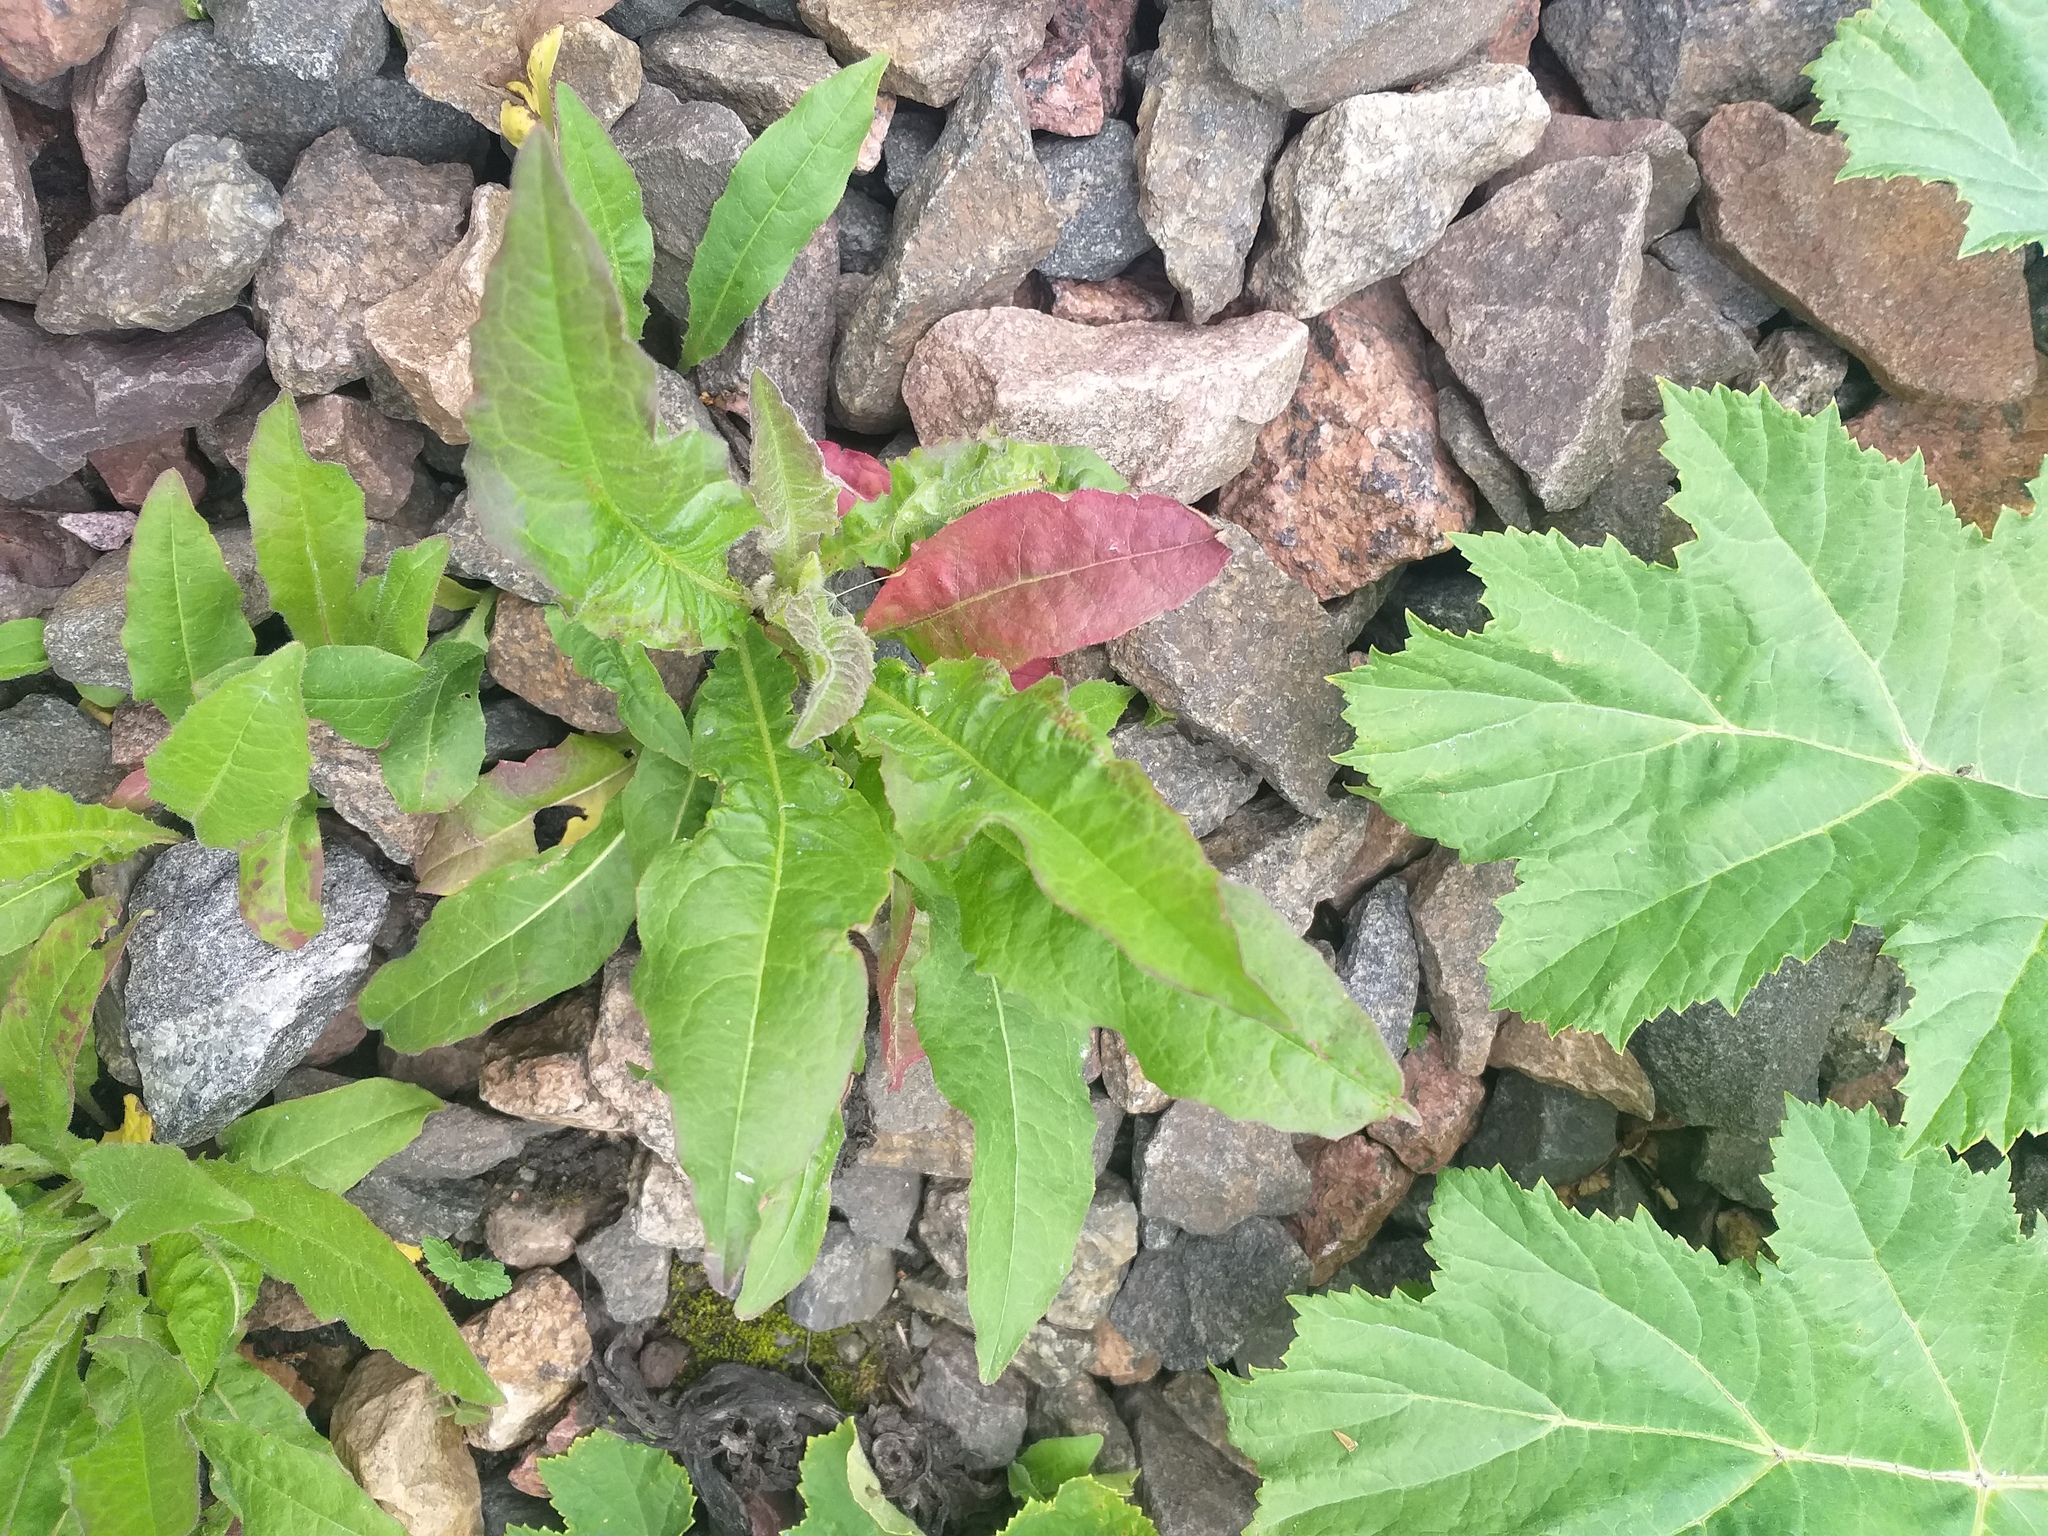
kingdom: Plantae
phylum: Tracheophyta
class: Magnoliopsida
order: Asterales
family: Asteraceae
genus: Picris
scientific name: Picris hieracioides
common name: Hawkweed oxtongue
